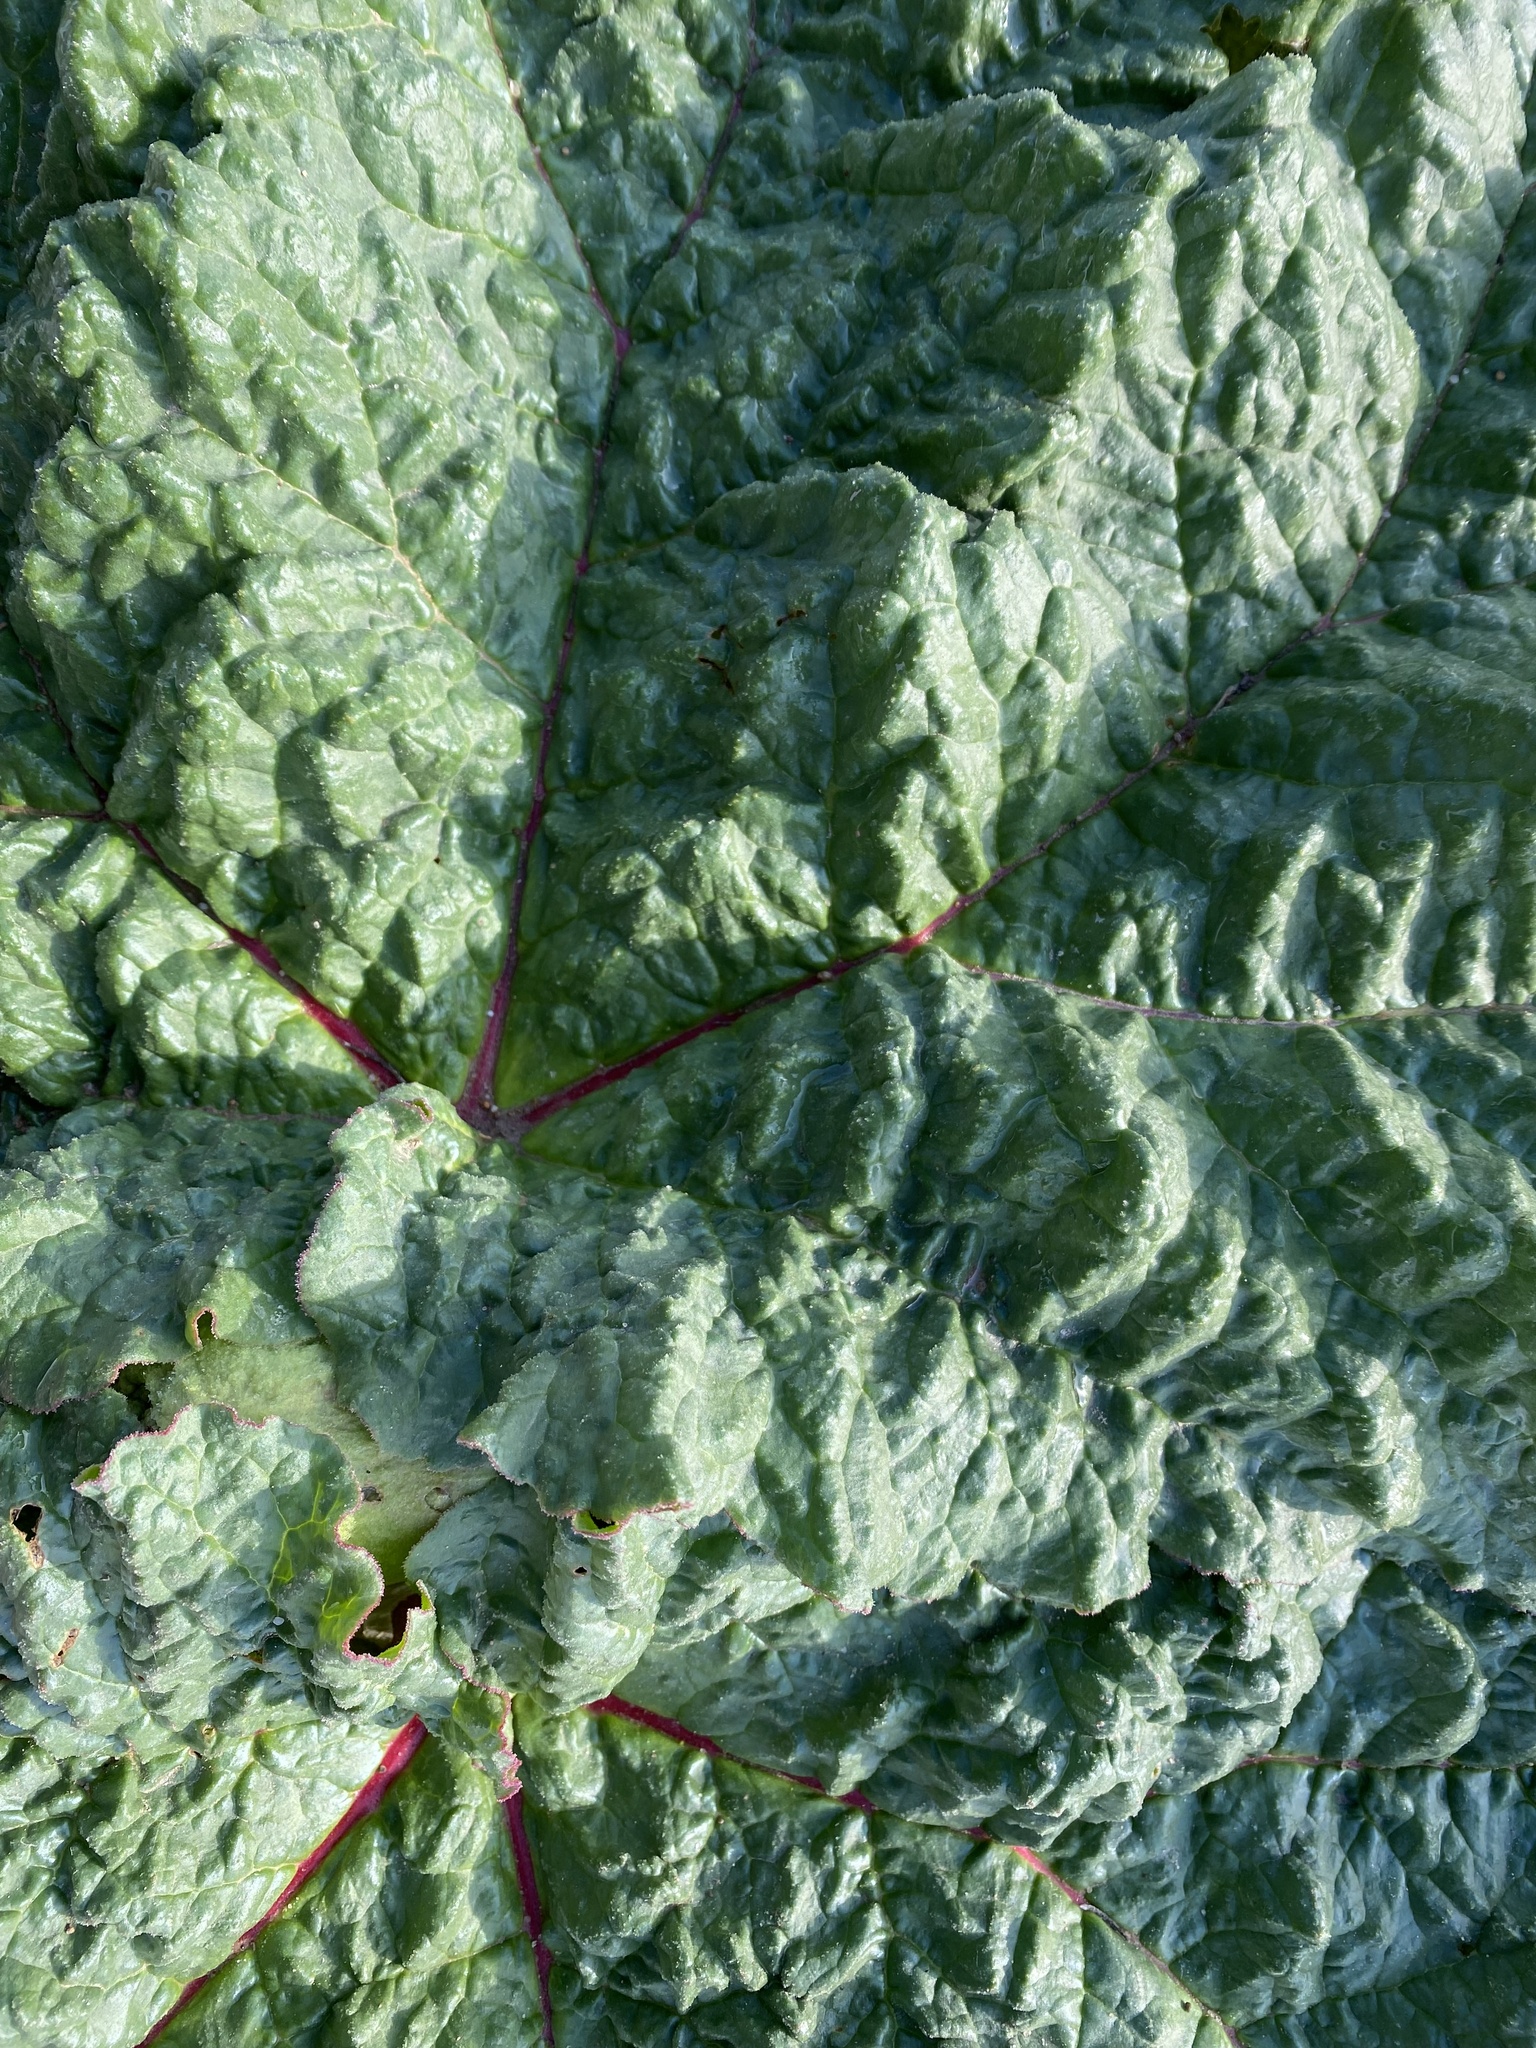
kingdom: Plantae
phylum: Tracheophyta
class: Magnoliopsida
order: Caryophyllales
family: Polygonaceae
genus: Rheum
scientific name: Rheum tataricum
